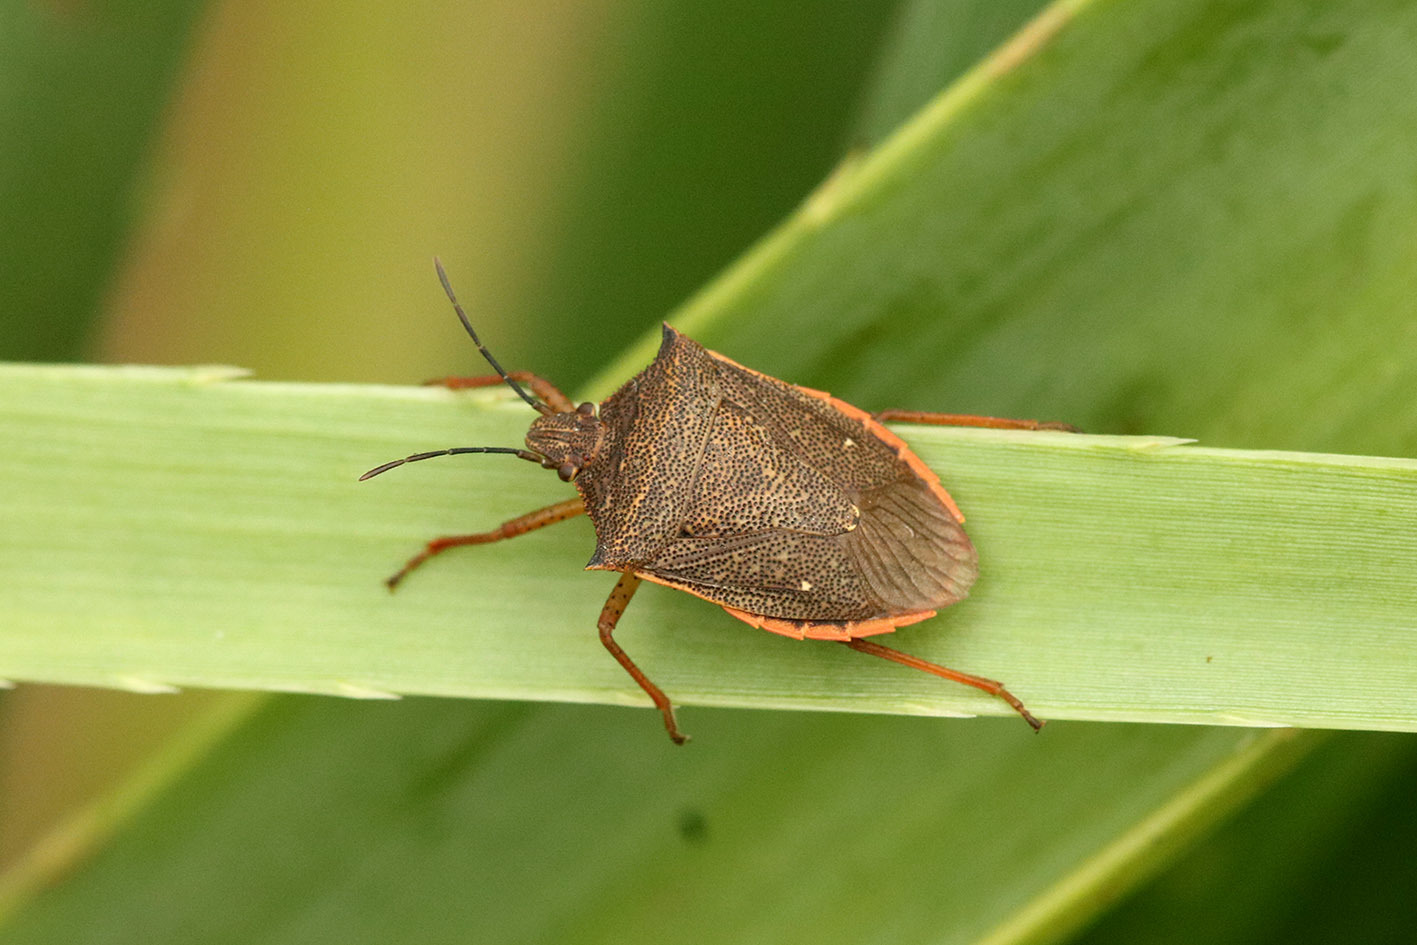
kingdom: Animalia
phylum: Arthropoda
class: Insecta
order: Hemiptera
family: Pentatomidae
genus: Euschistus
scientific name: Euschistus
